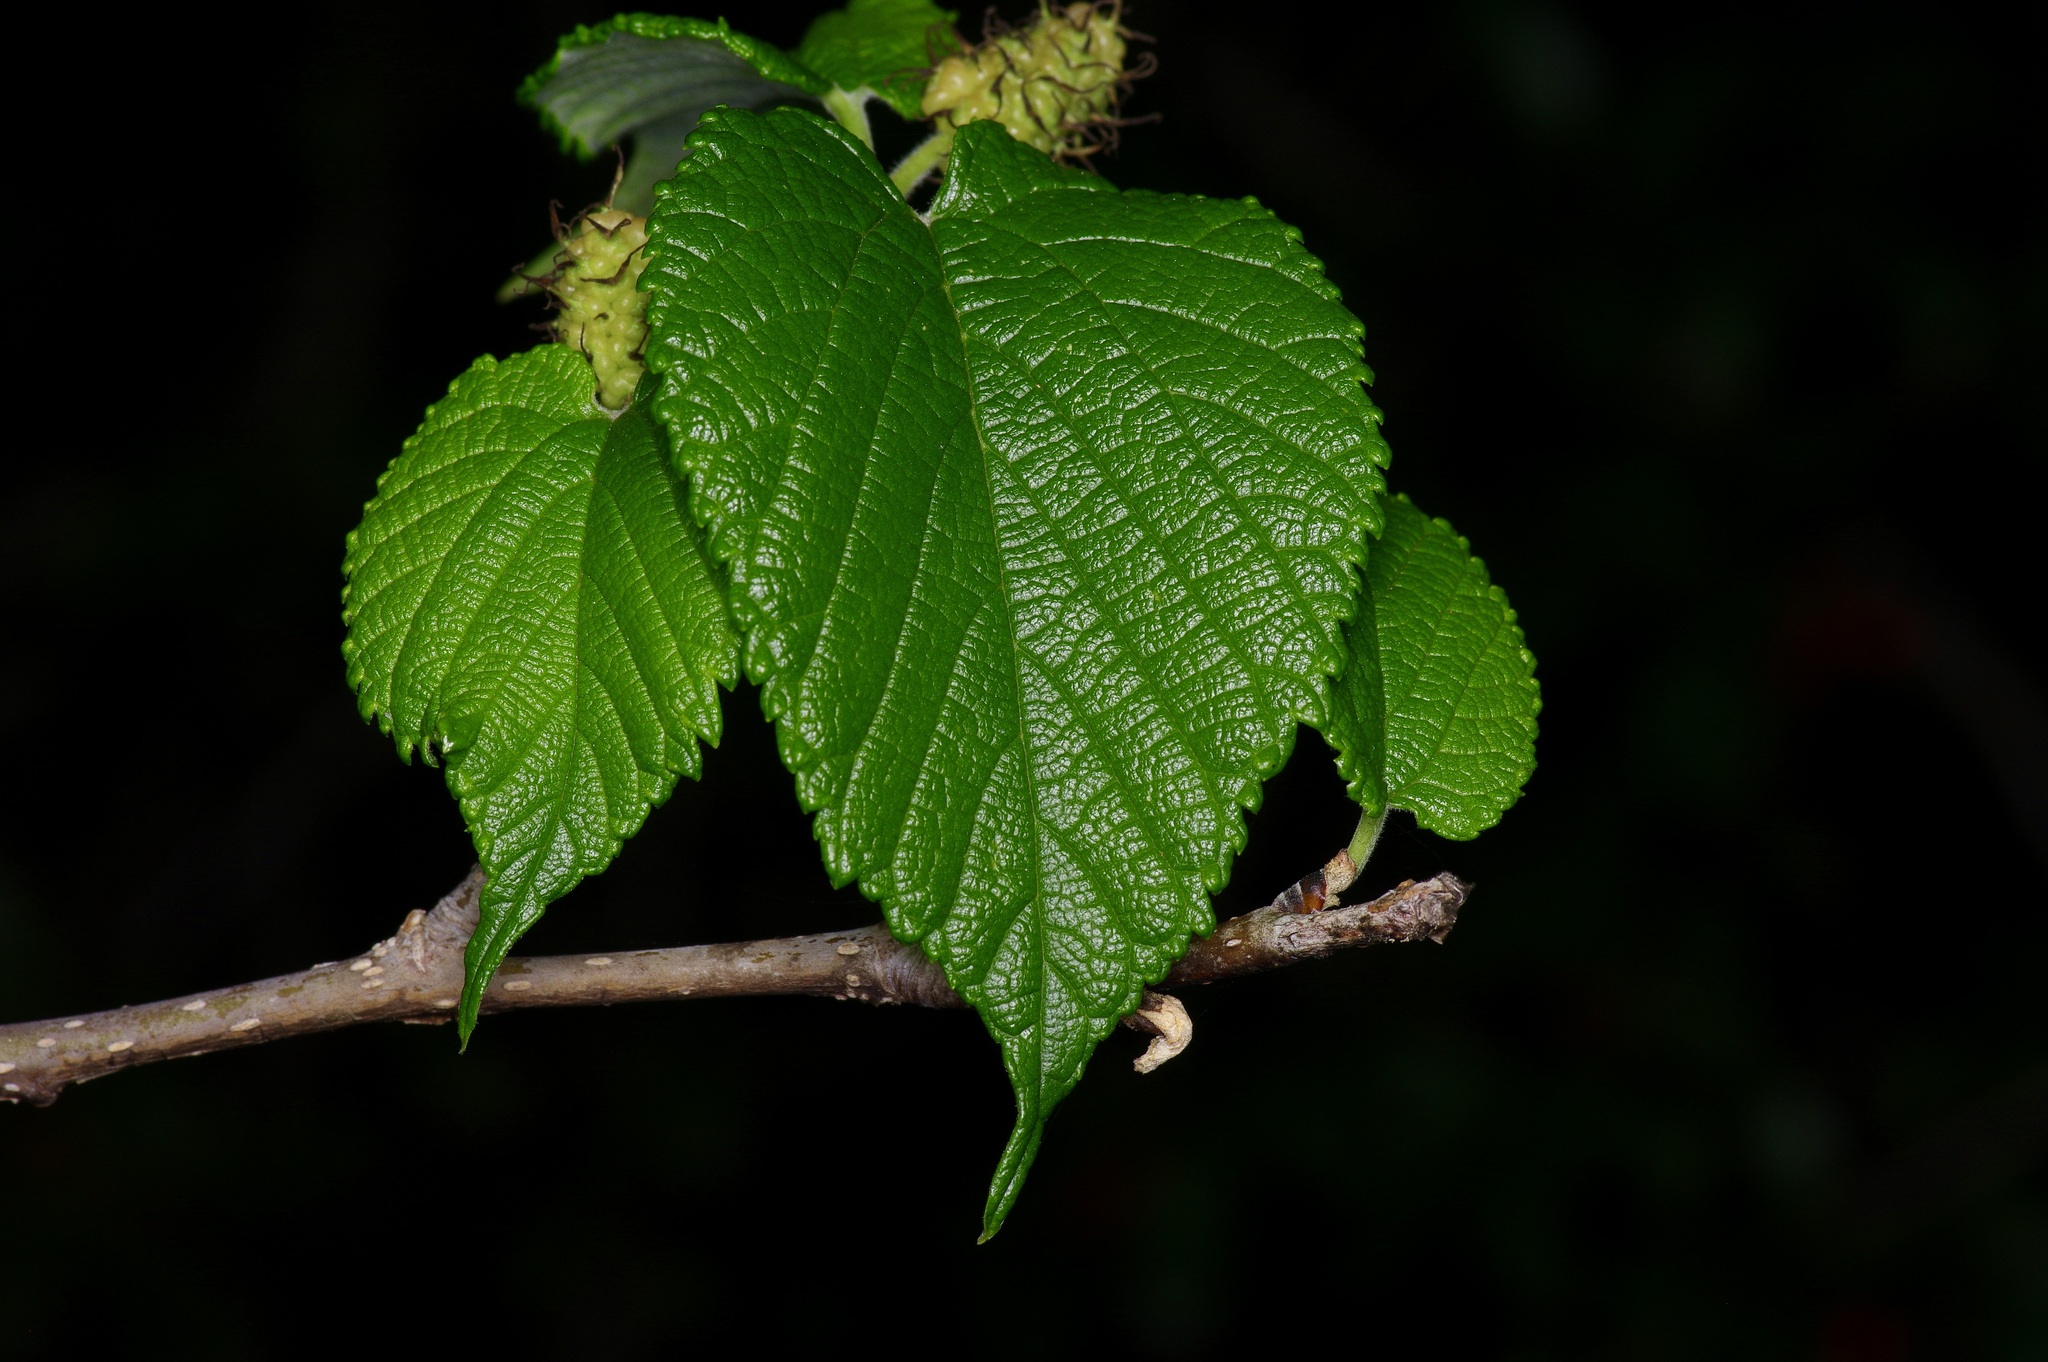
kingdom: Plantae
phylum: Tracheophyta
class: Magnoliopsida
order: Rosales
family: Moraceae
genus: Morus
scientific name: Morus rubra
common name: Red mulberry
